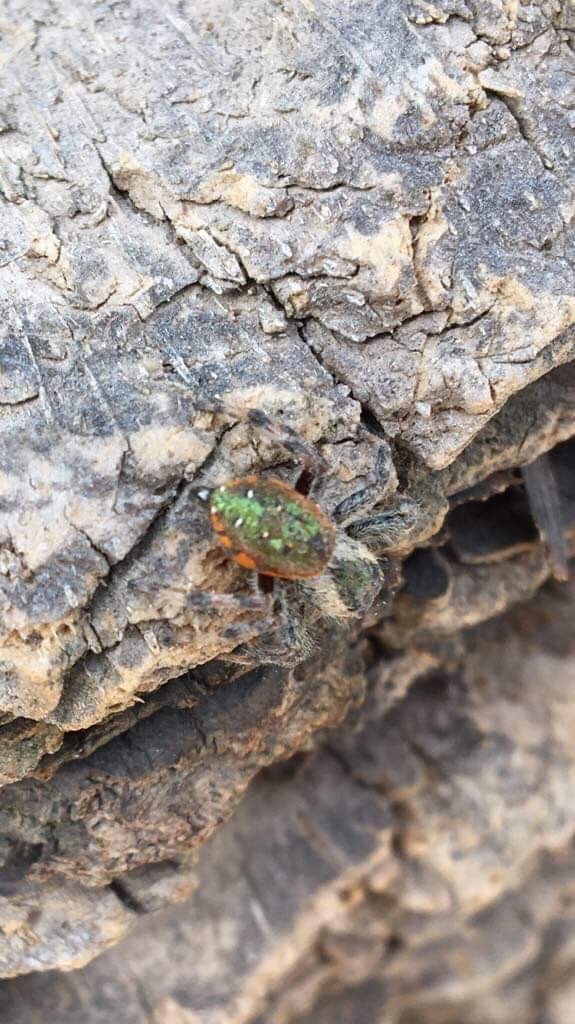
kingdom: Animalia
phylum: Arthropoda
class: Arachnida
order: Araneae
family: Salticidae
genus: Paraphidippus
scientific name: Paraphidippus aurantius
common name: Jumping spiders
